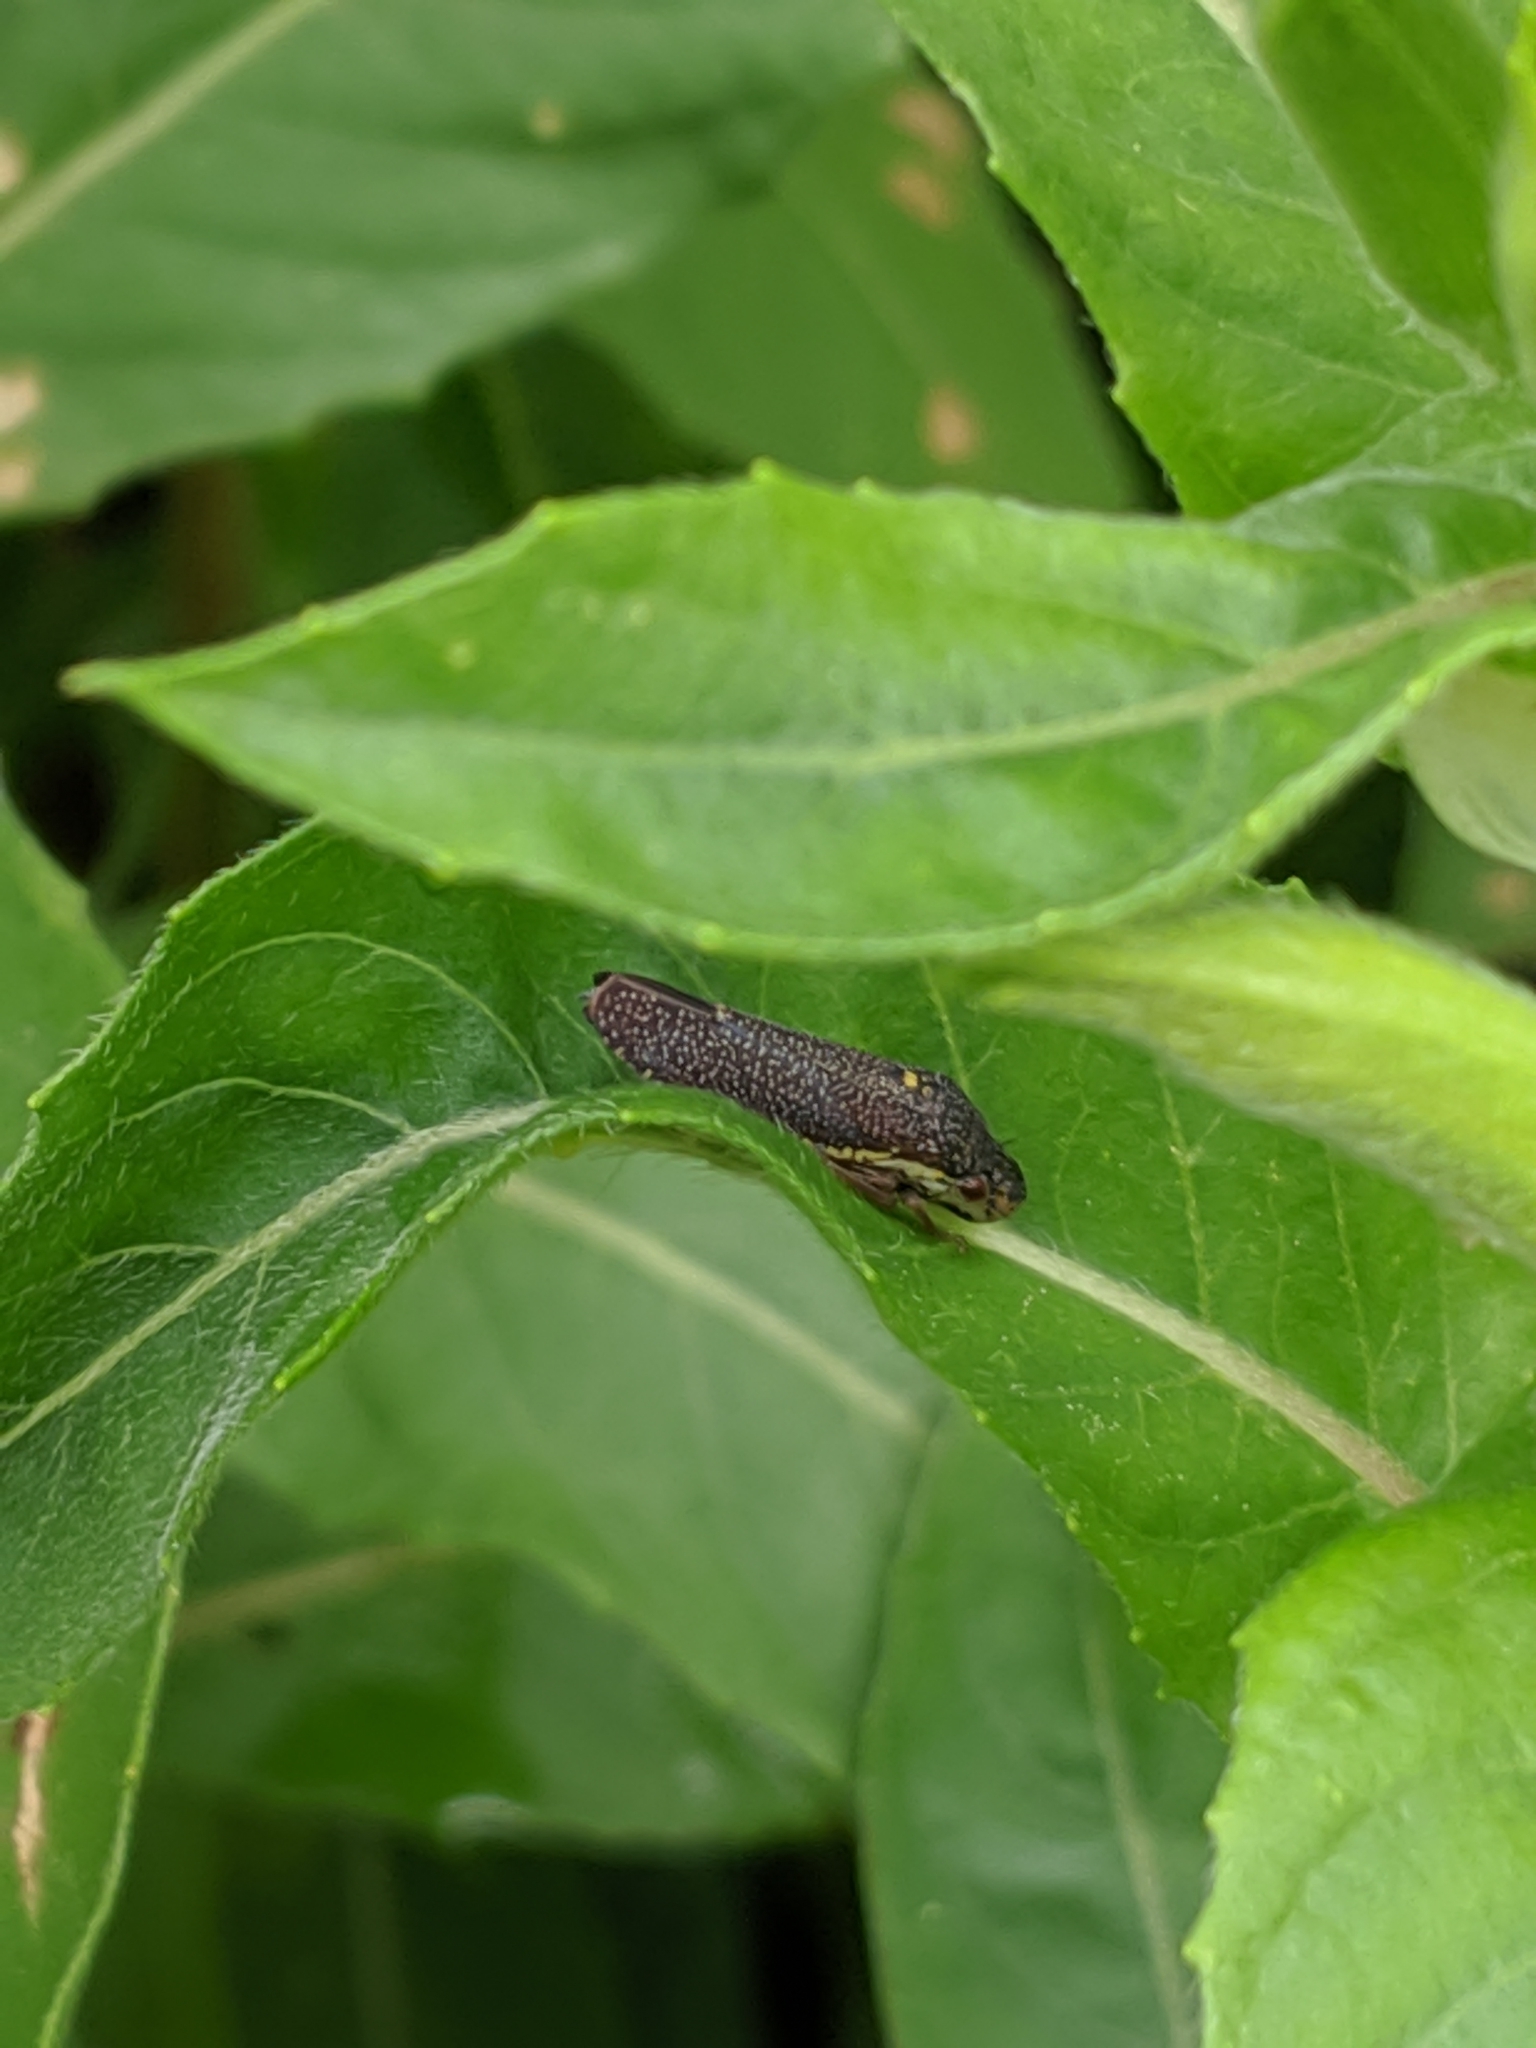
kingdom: Animalia
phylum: Arthropoda
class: Insecta
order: Hemiptera
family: Cicadellidae
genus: Paraulacizes
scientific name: Paraulacizes irrorata
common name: Speckled sharpshooter
